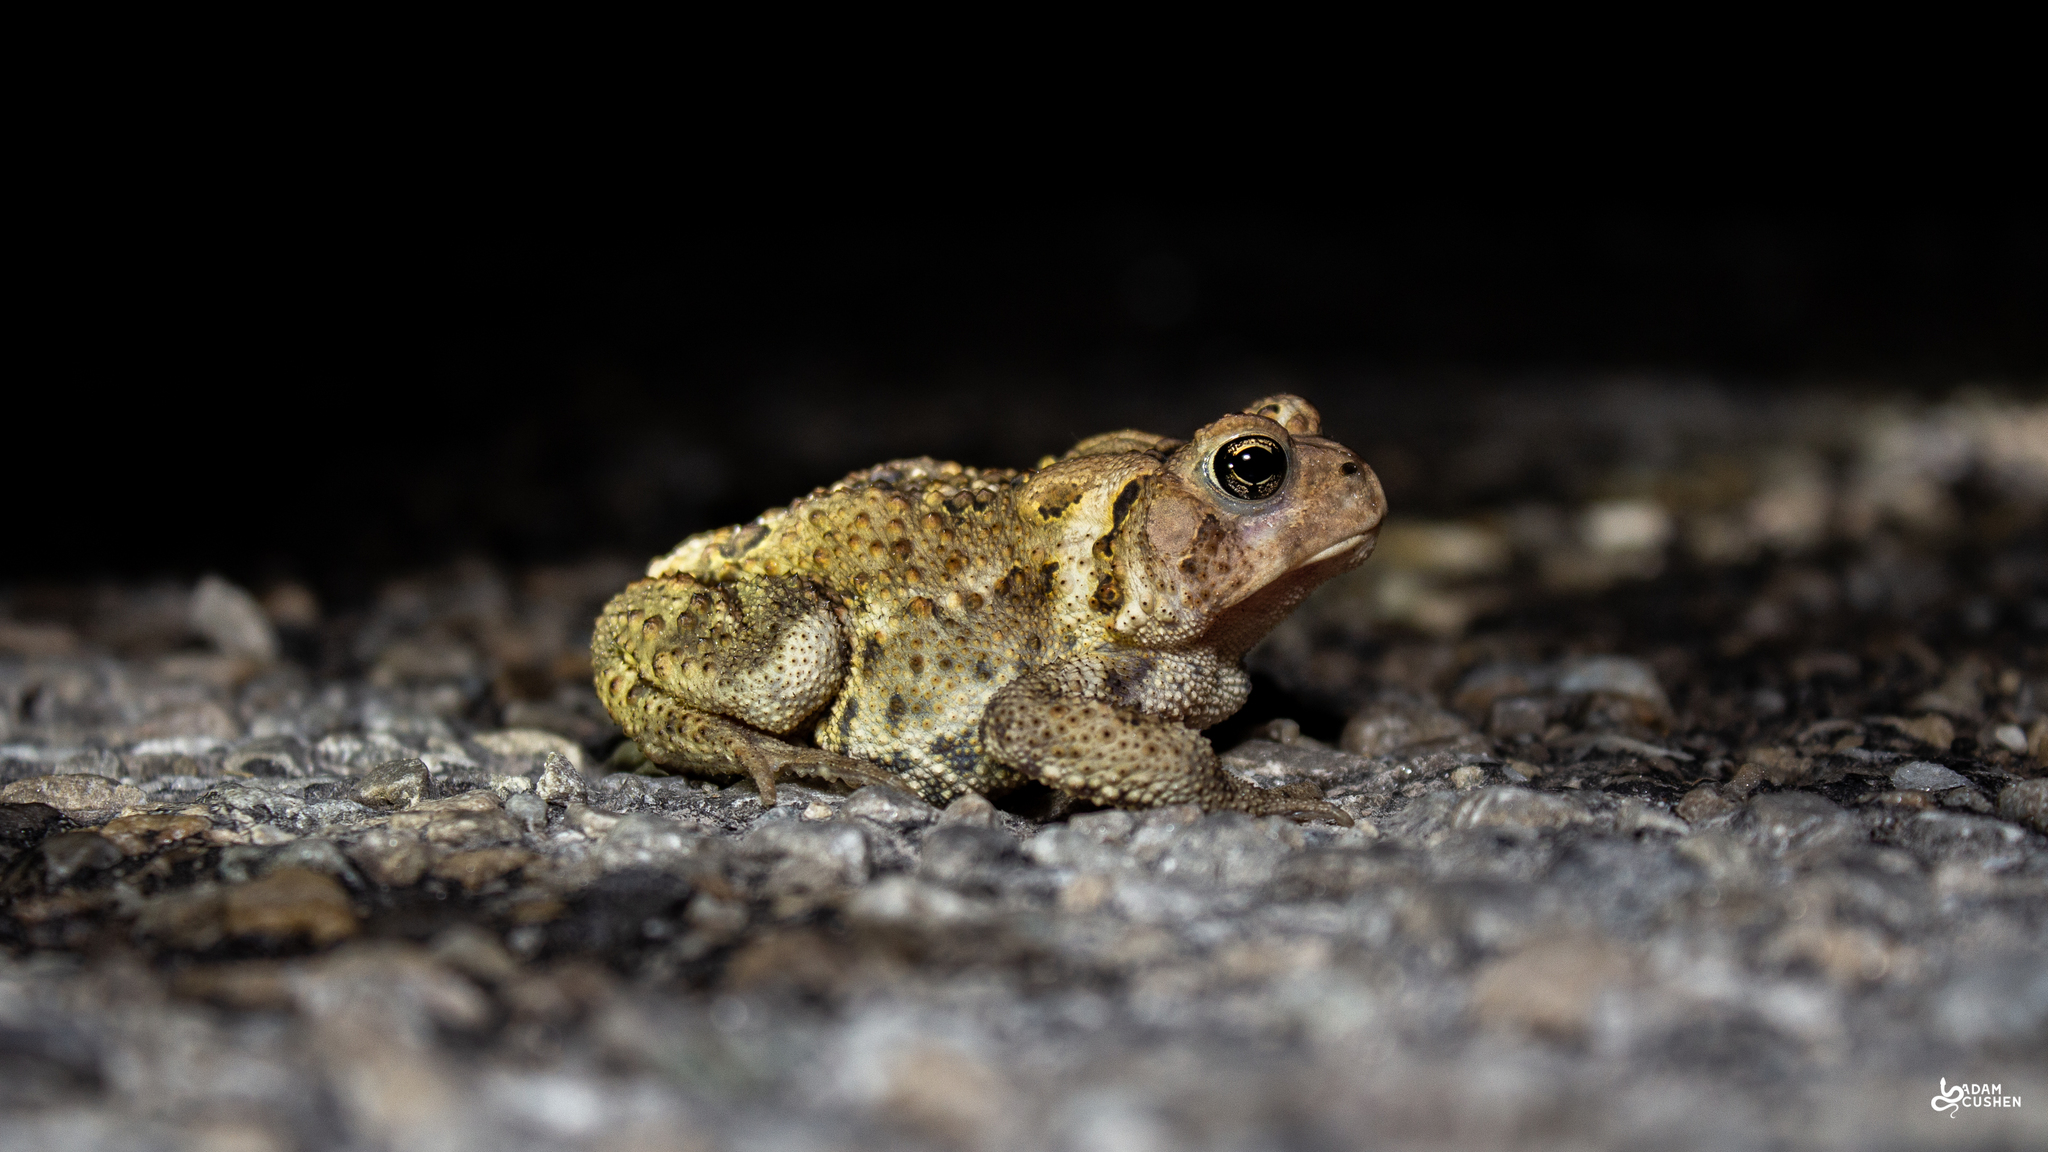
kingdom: Animalia
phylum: Chordata
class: Amphibia
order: Anura
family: Bufonidae
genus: Anaxyrus
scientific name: Anaxyrus americanus
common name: American toad
